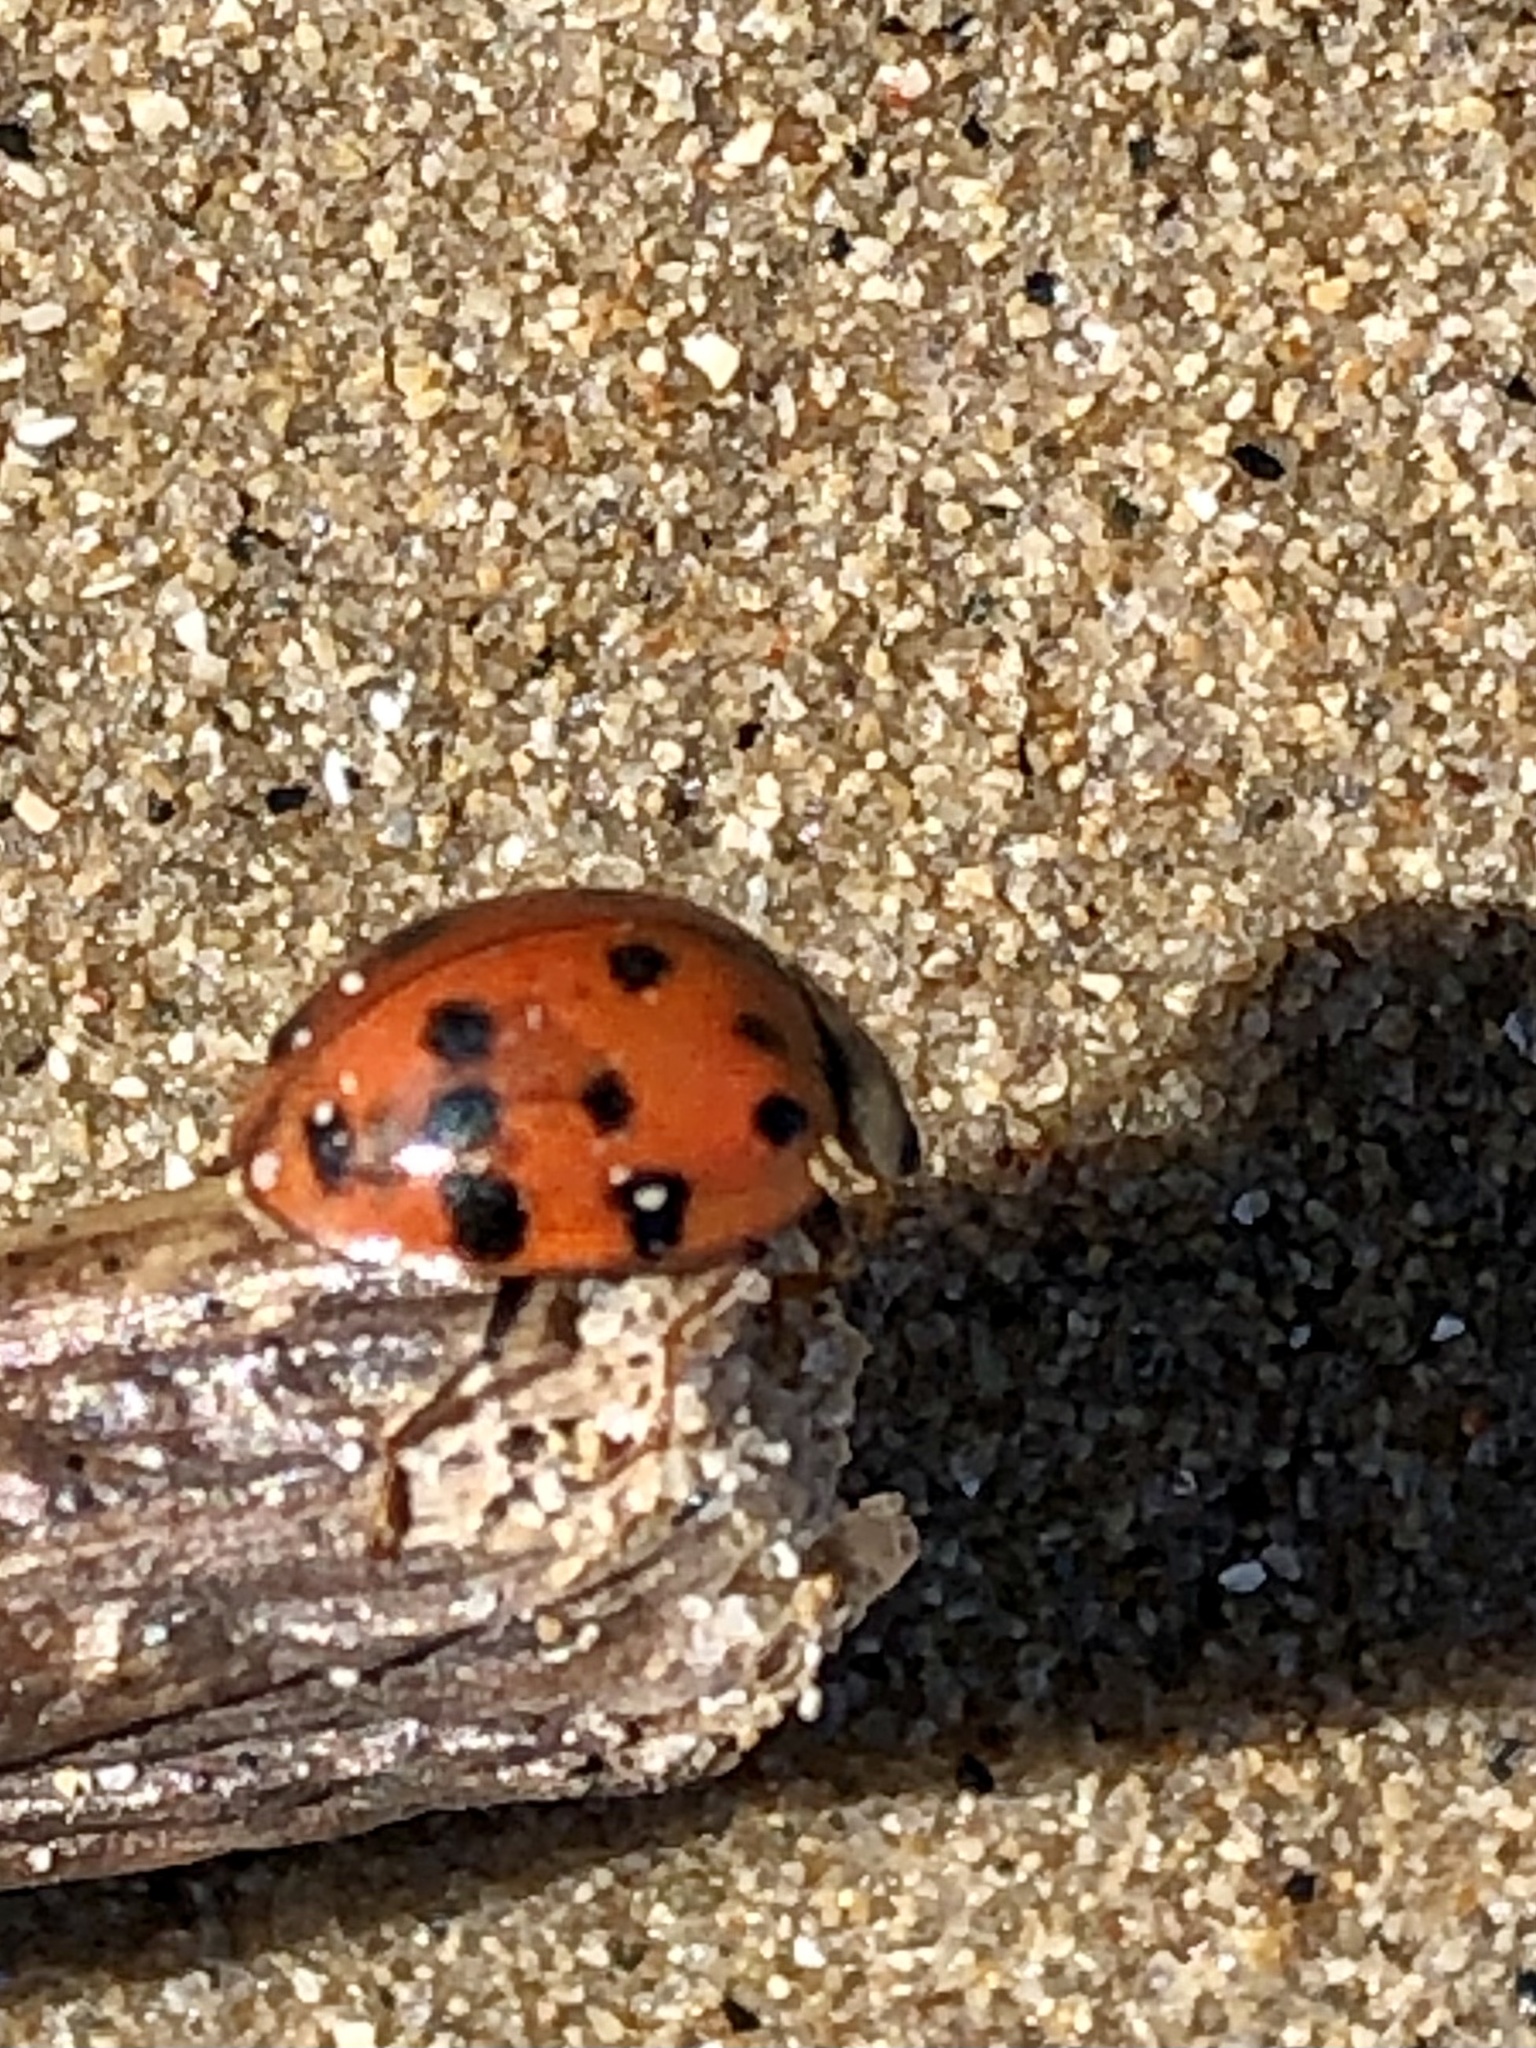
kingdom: Animalia
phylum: Arthropoda
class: Insecta
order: Coleoptera
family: Coccinellidae
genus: Harmonia
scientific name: Harmonia axyridis
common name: Harlequin ladybird
